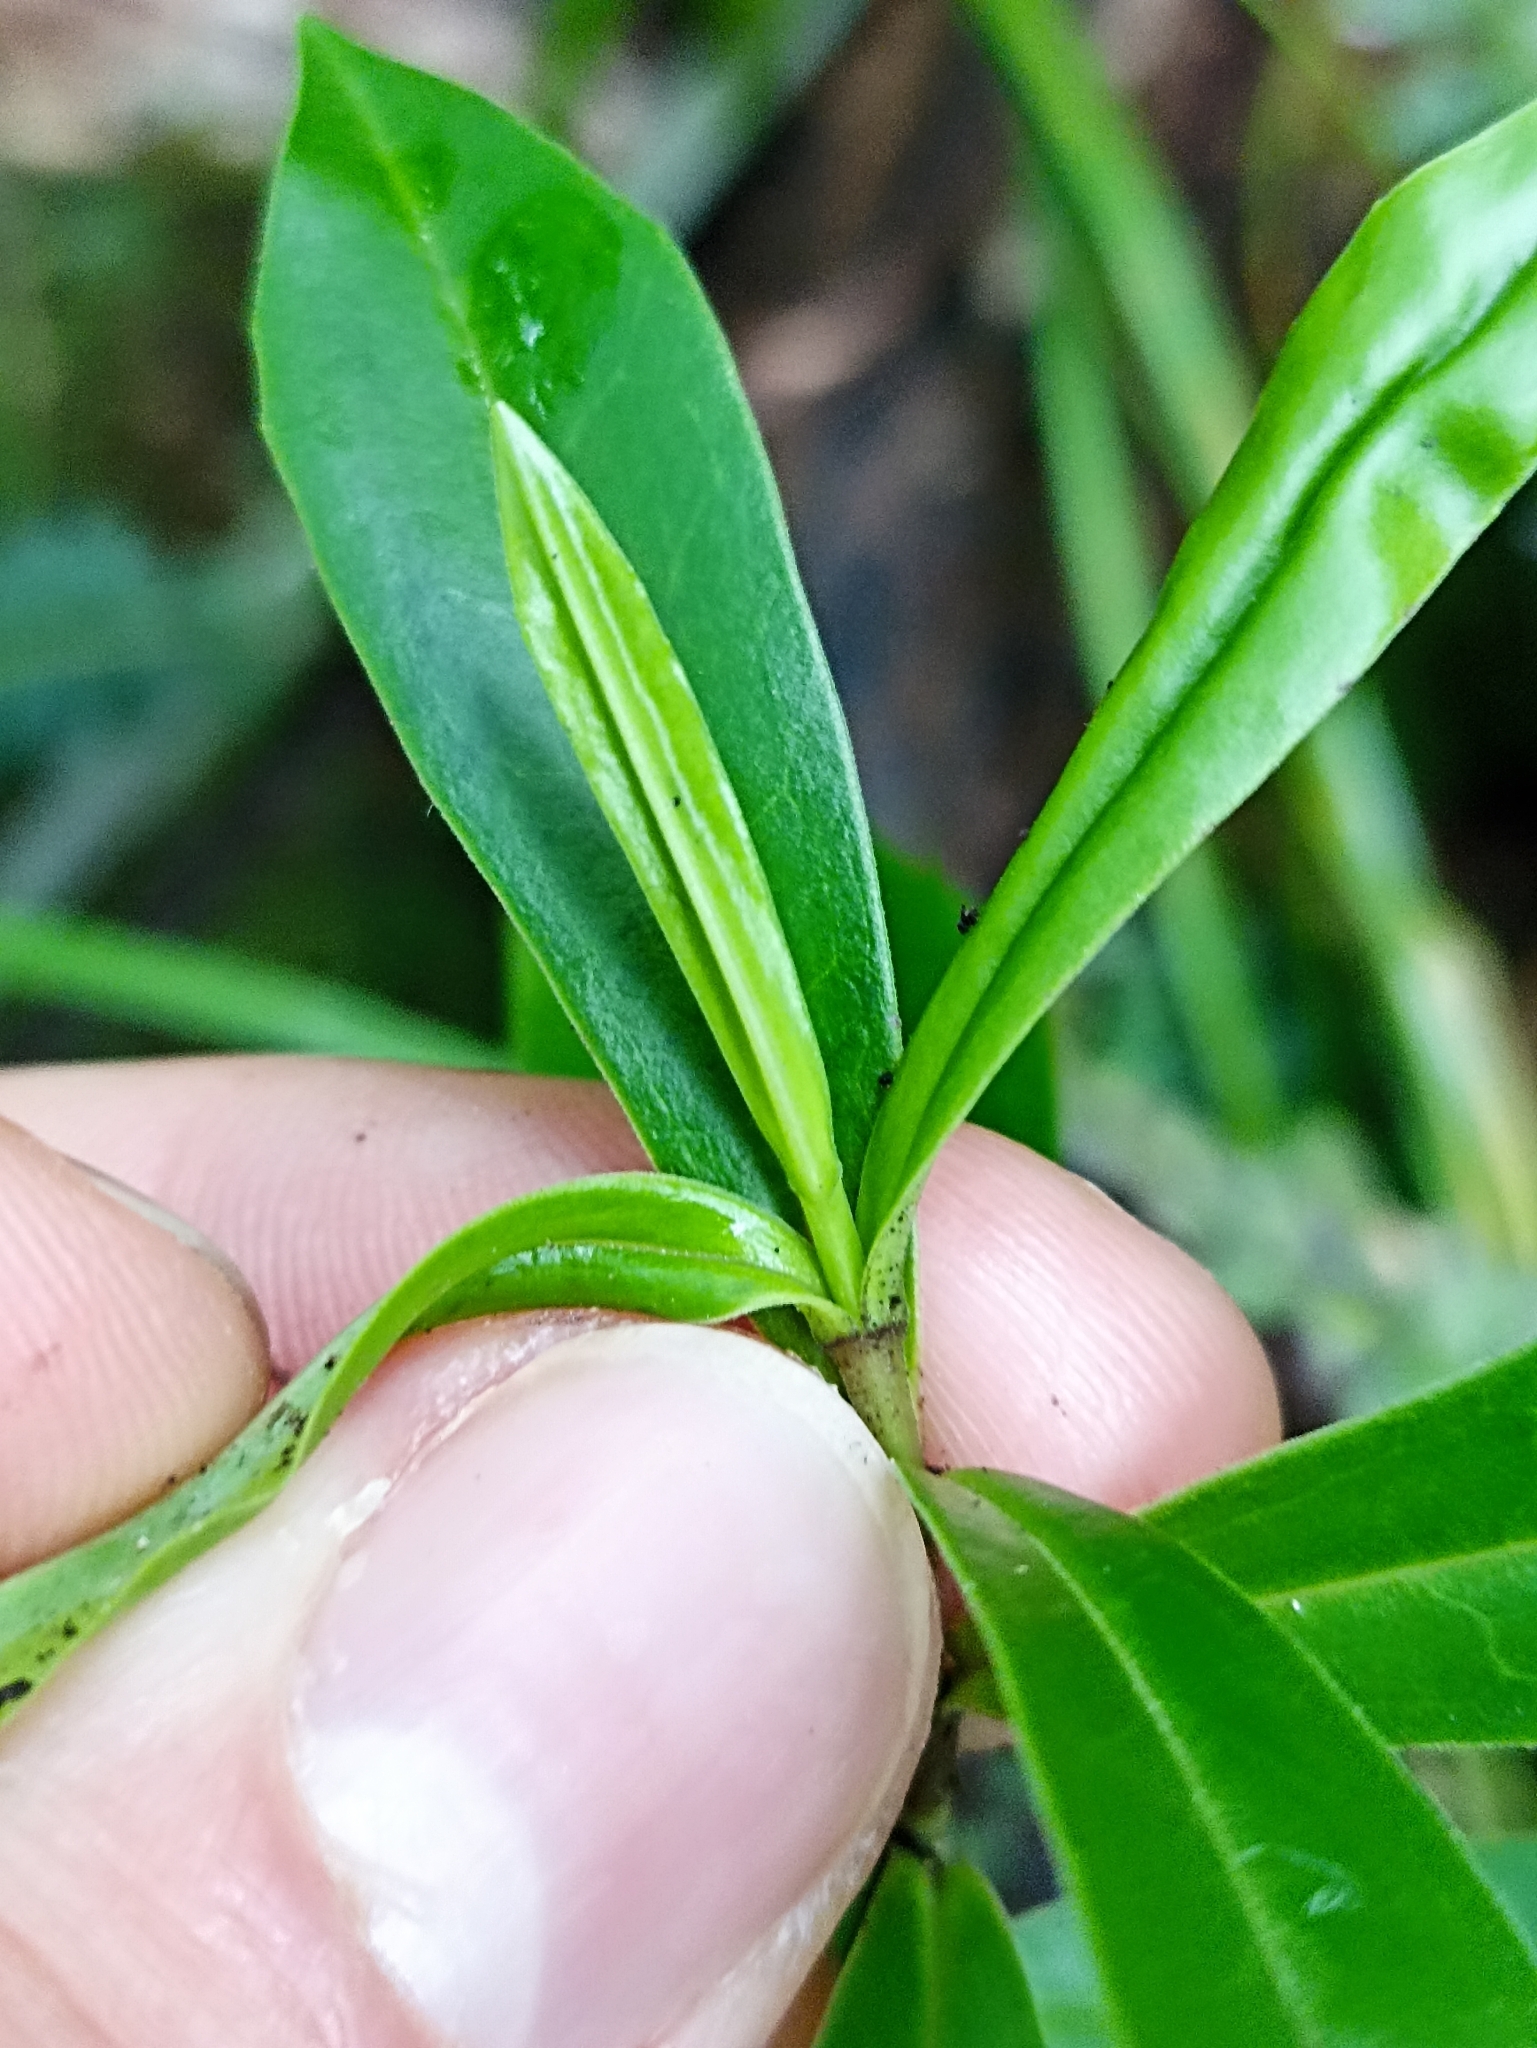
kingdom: Plantae
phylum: Tracheophyta
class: Magnoliopsida
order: Lamiales
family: Plantaginaceae
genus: Veronica
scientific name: Veronica stricta
